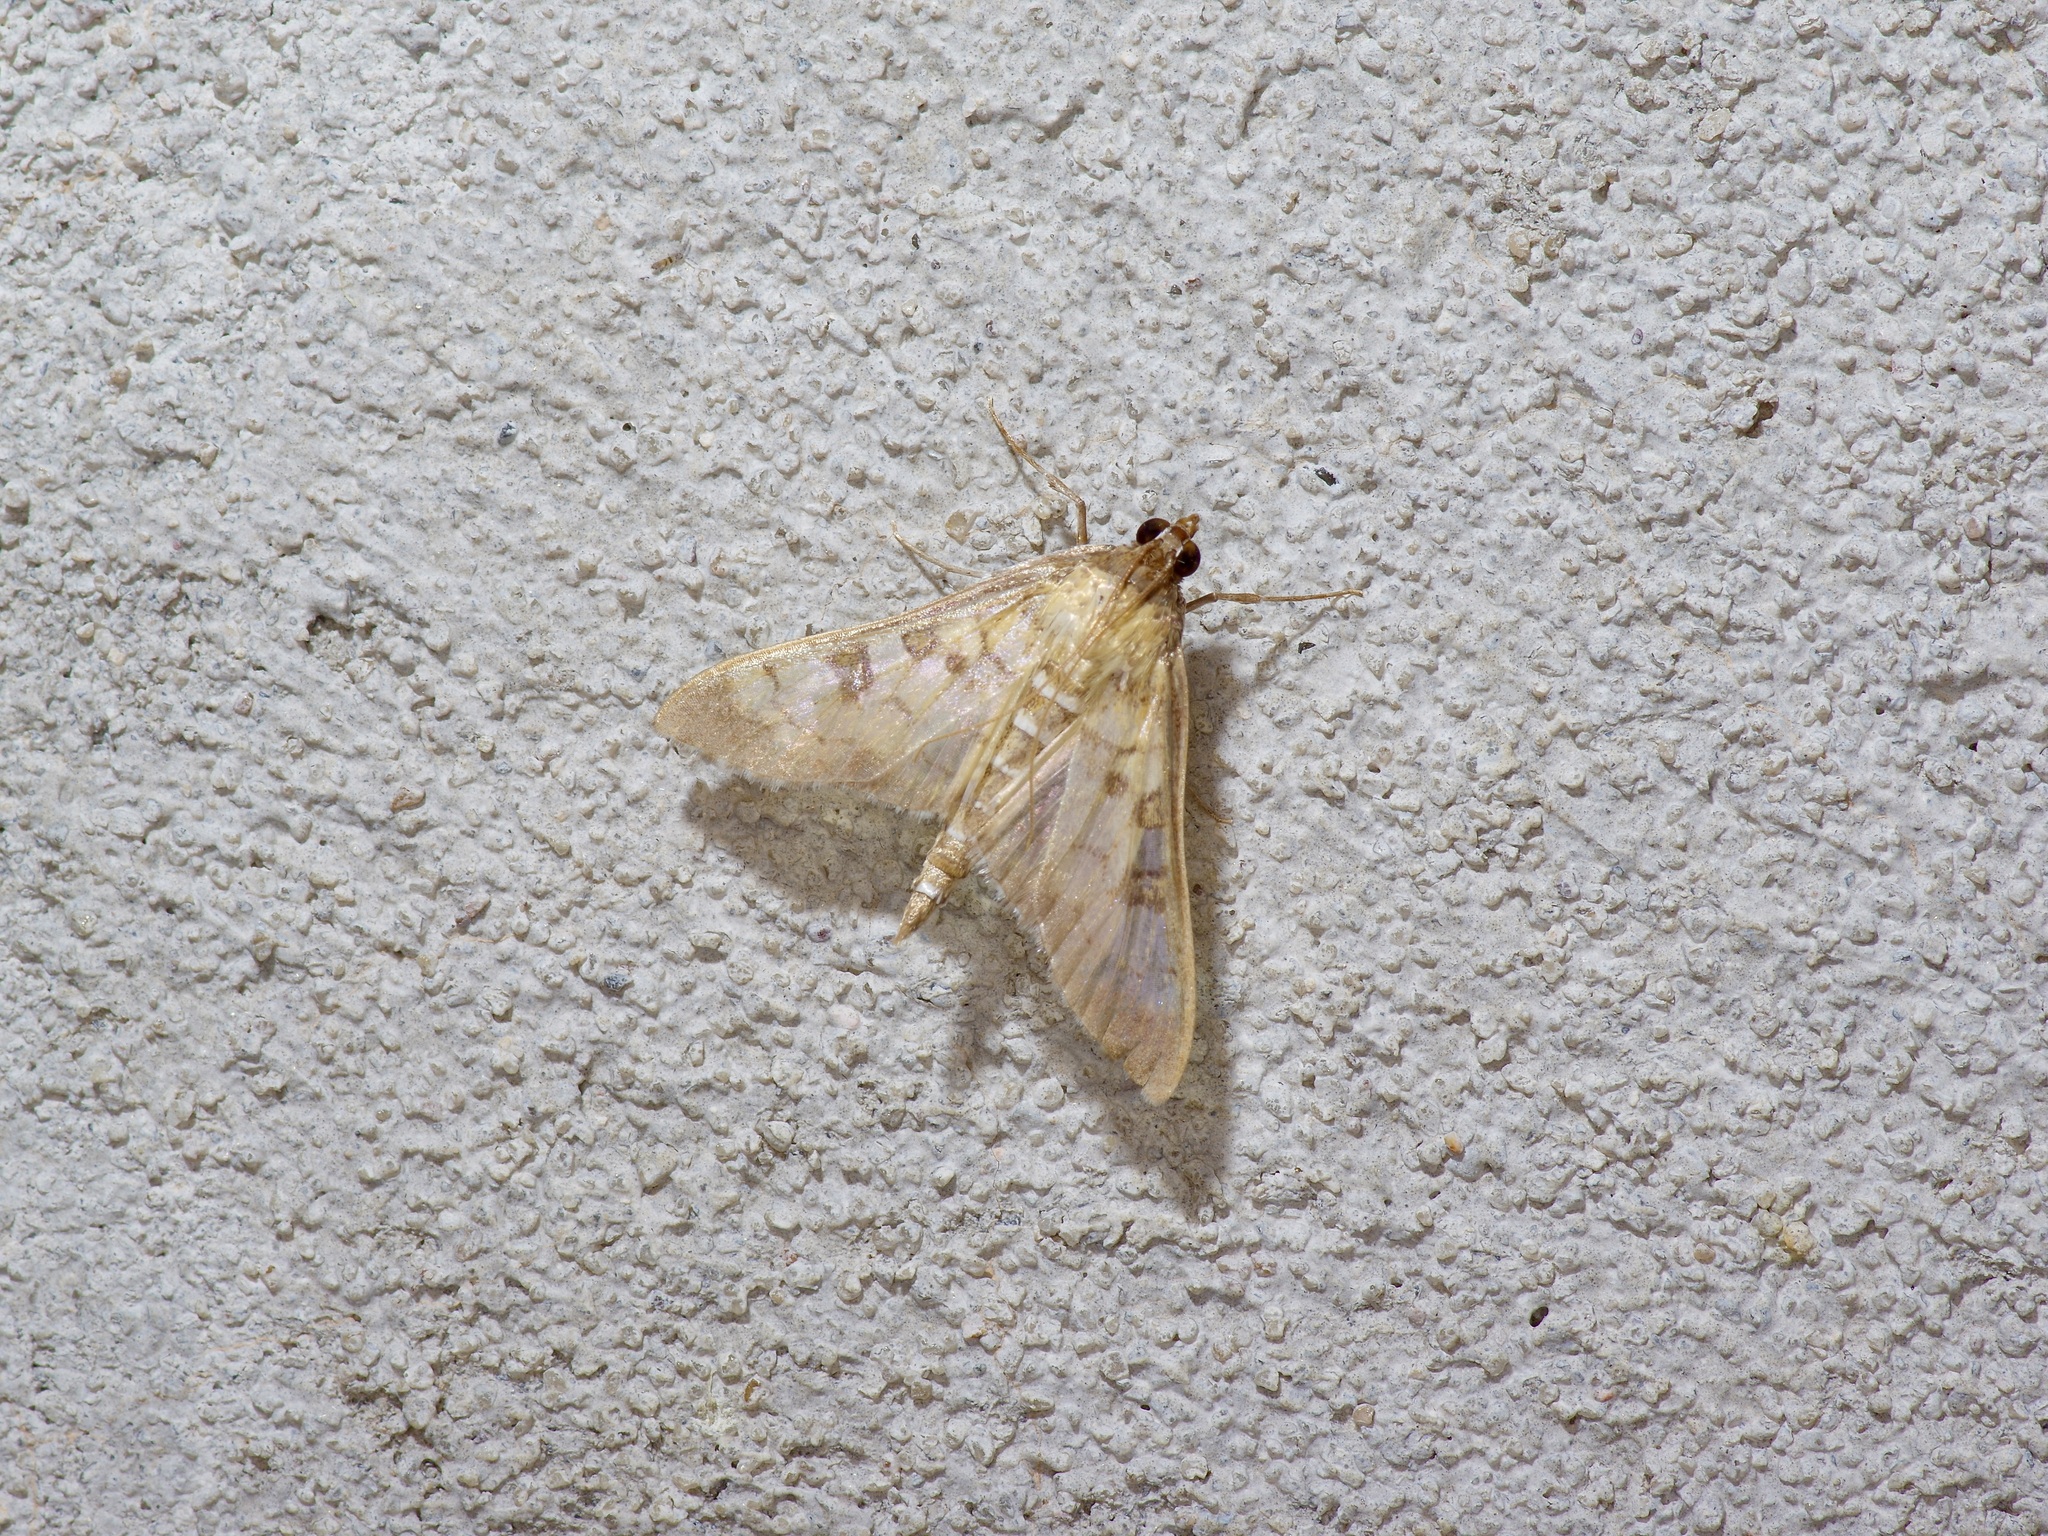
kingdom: Animalia
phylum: Arthropoda
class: Insecta
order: Lepidoptera
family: Crambidae
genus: Mimorista
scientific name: Mimorista subcostalis
